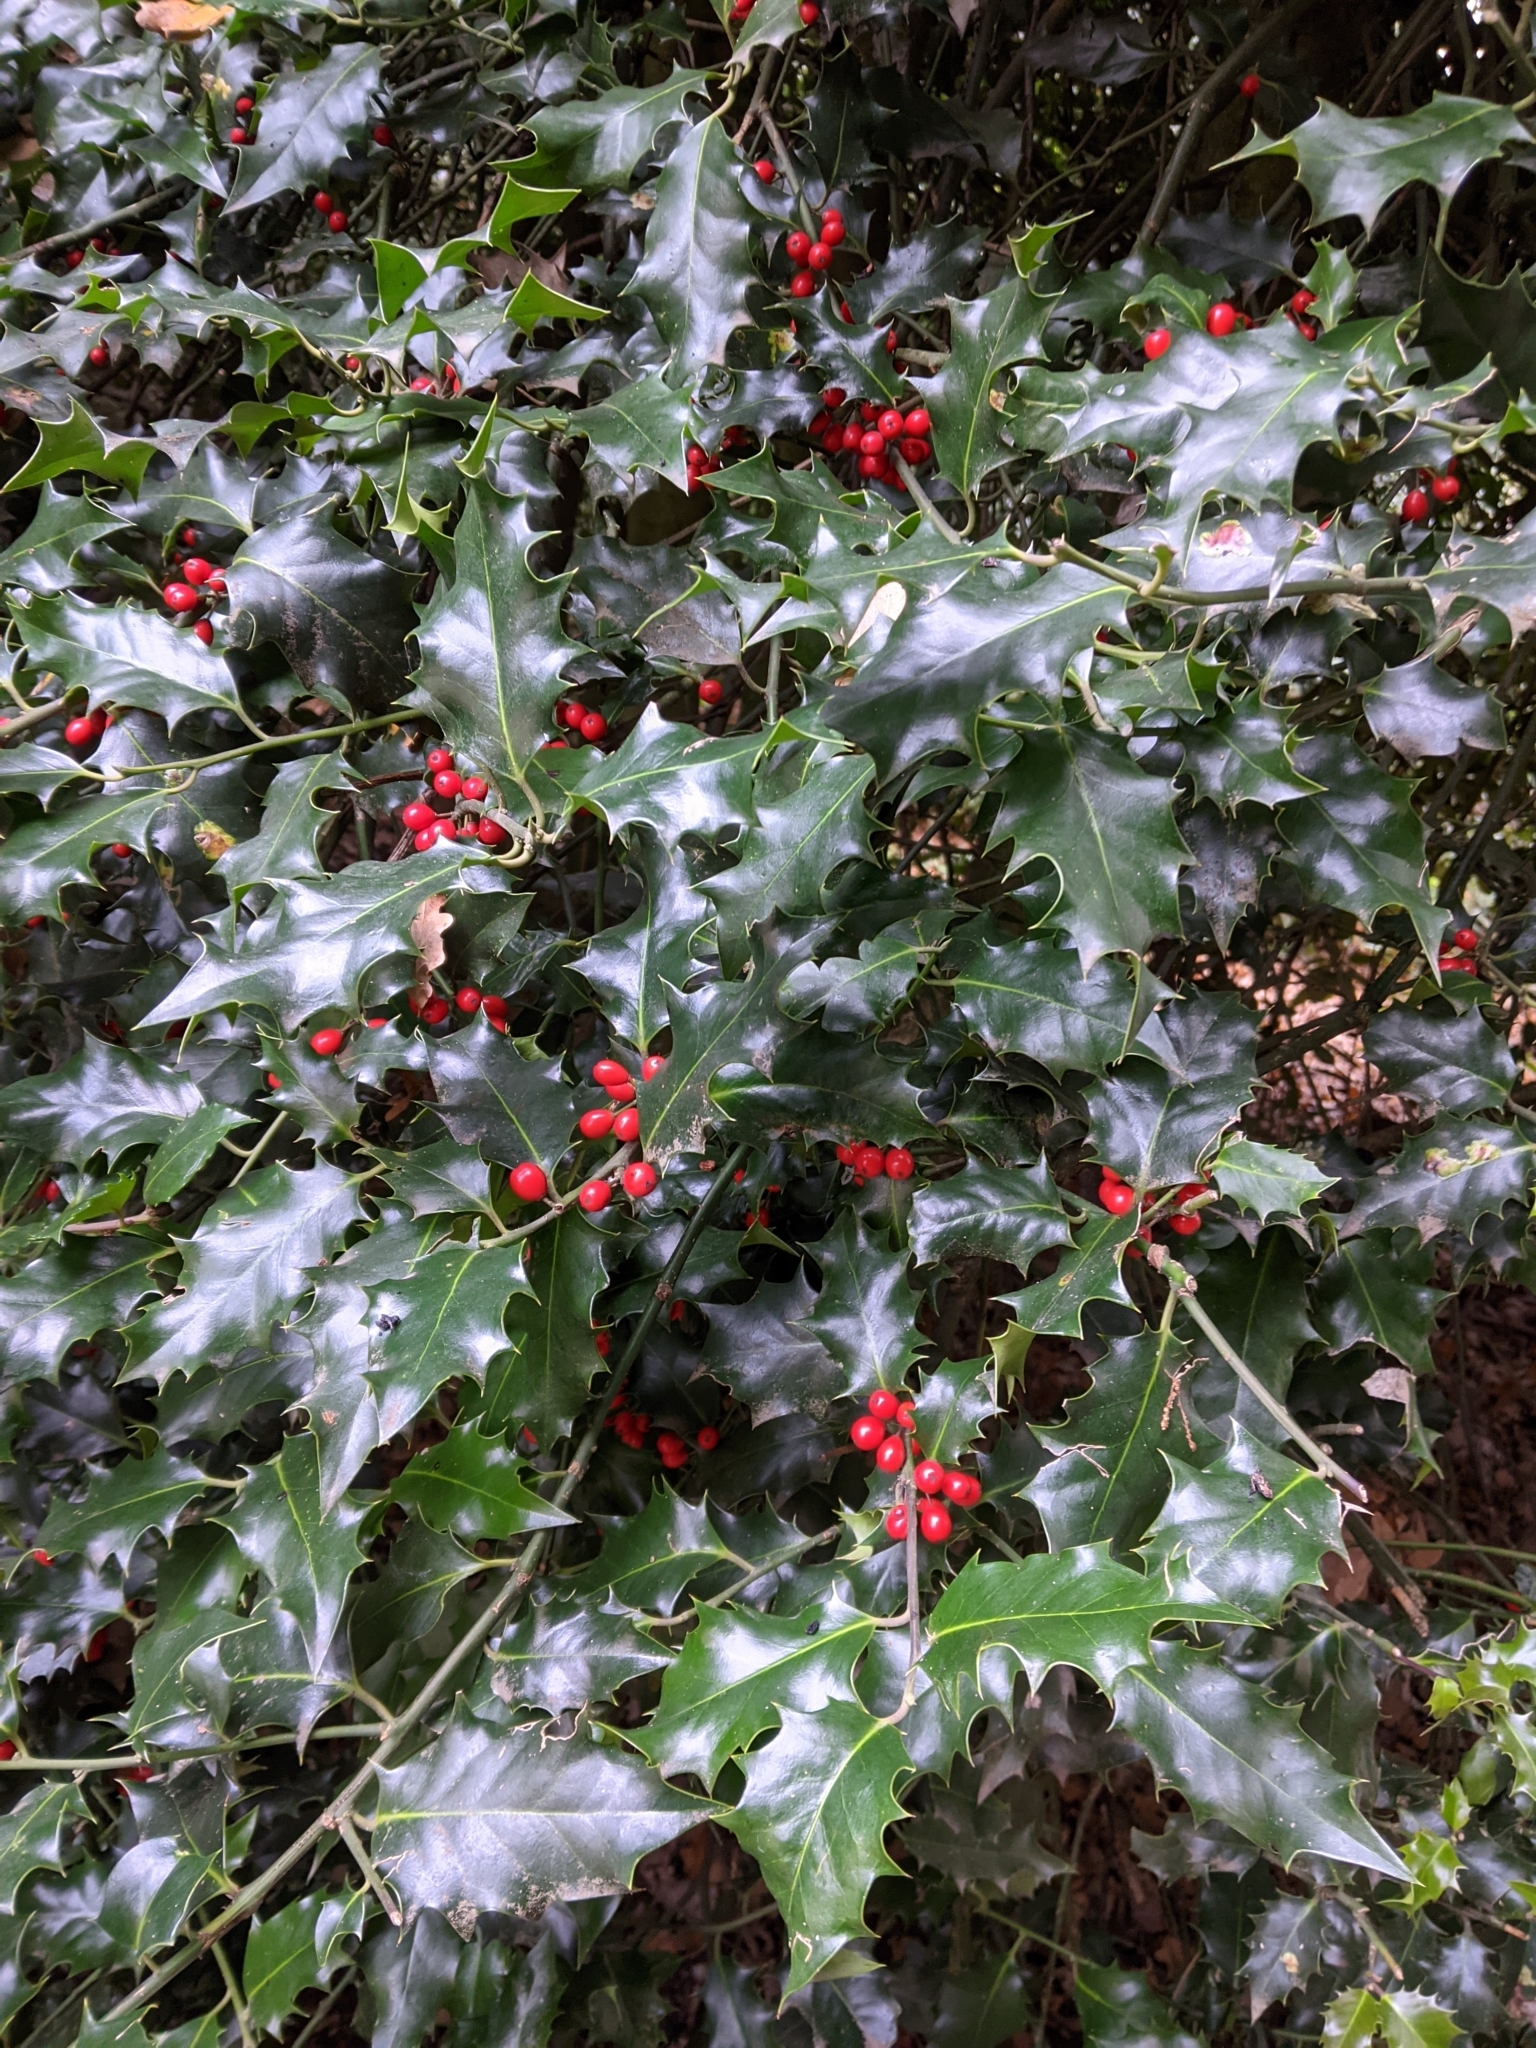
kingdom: Plantae
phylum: Tracheophyta
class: Magnoliopsida
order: Aquifoliales
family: Aquifoliaceae
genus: Ilex
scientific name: Ilex aquifolium
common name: English holly
